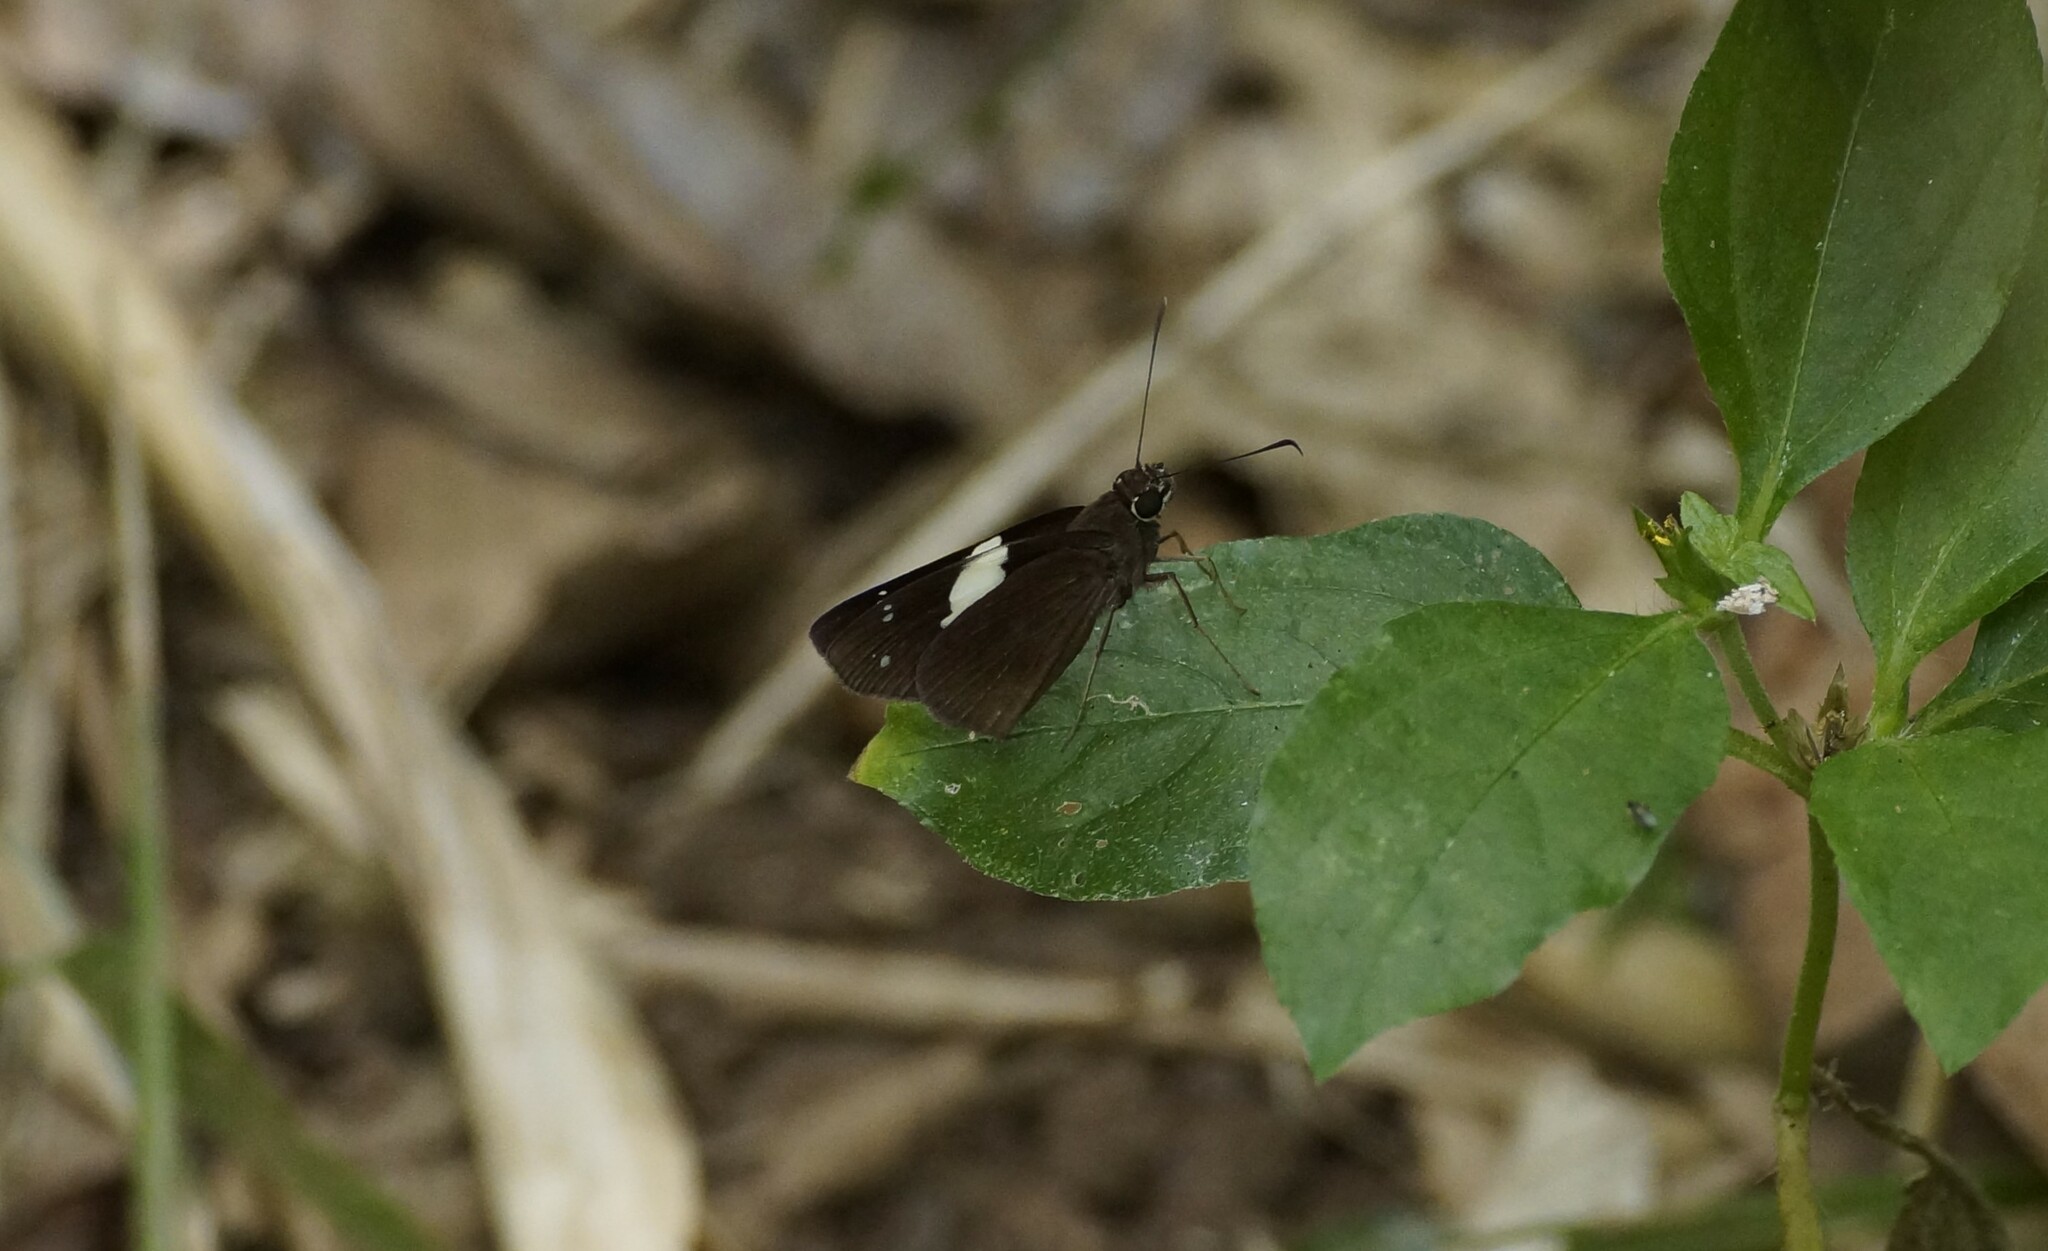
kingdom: Animalia
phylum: Arthropoda
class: Insecta
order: Lepidoptera
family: Hesperiidae
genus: Notocrypta
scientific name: Notocrypta waigensis
